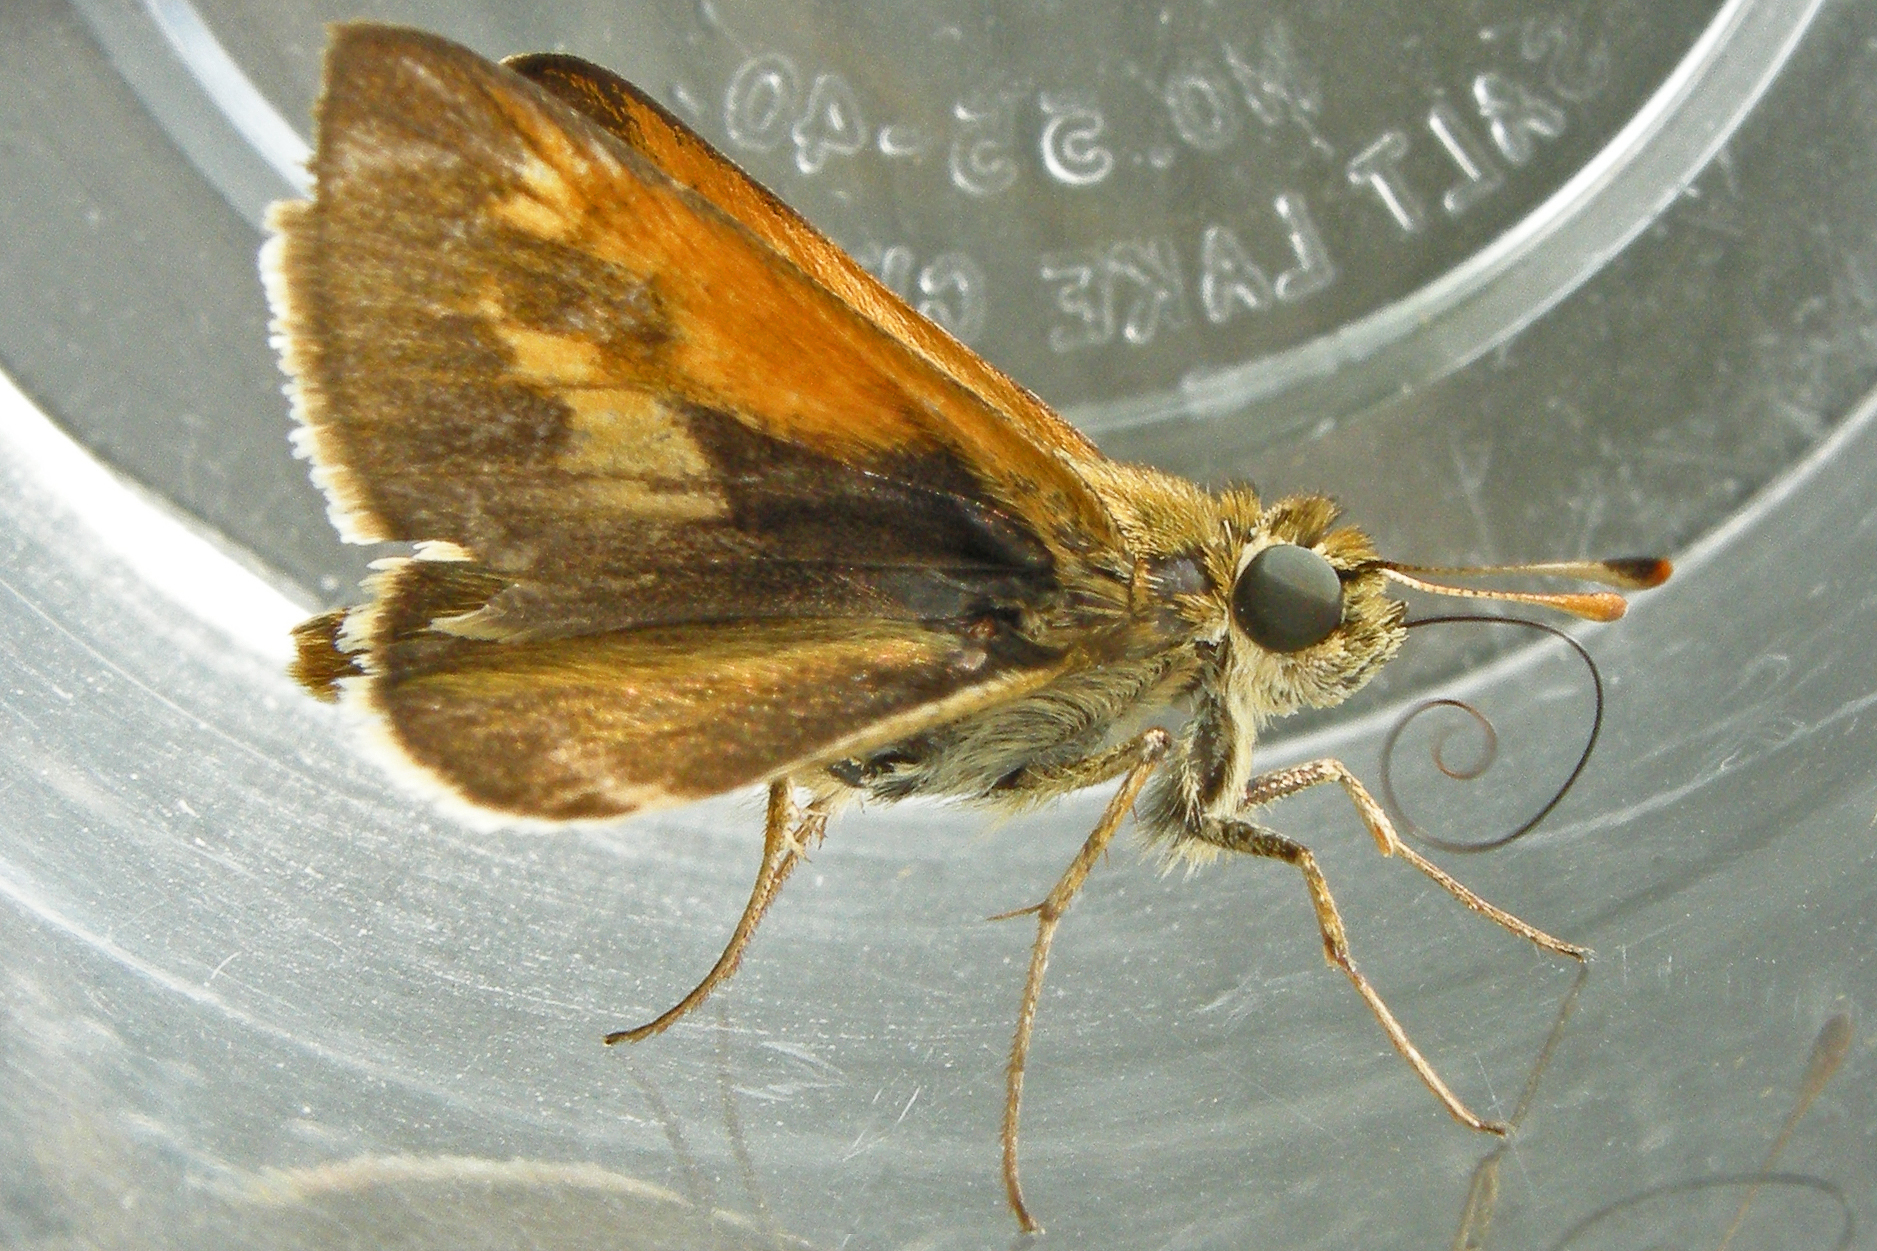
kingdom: Animalia
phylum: Arthropoda
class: Insecta
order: Lepidoptera
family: Hesperiidae
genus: Polites
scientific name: Polites themistocles
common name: Tawny-edged skipper
